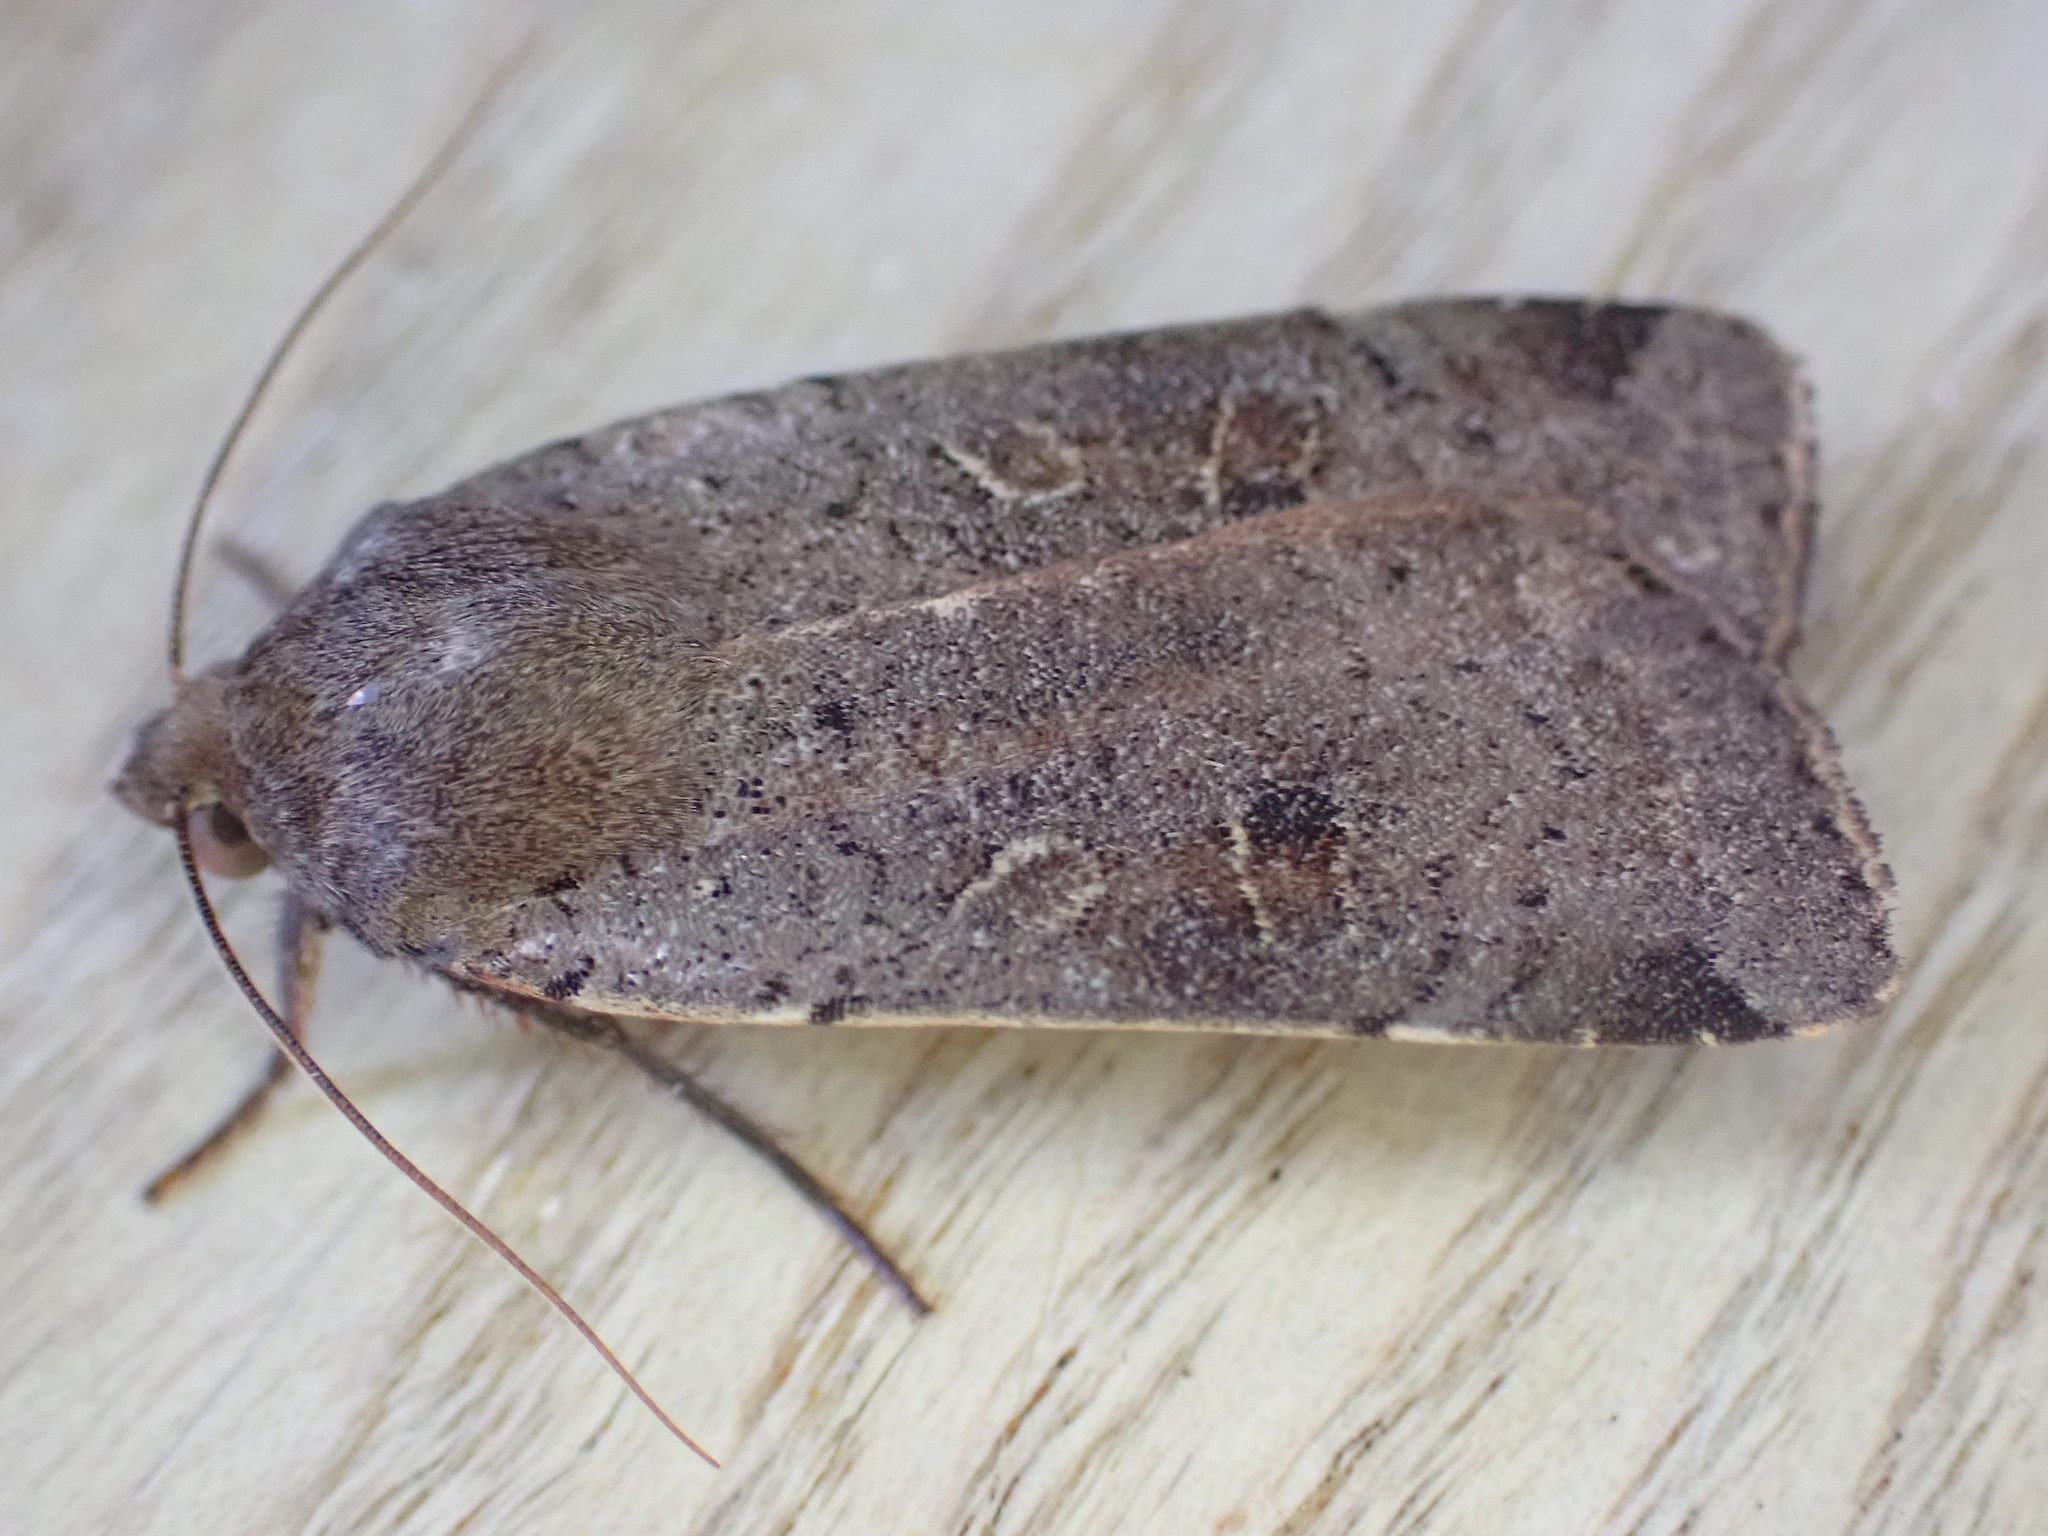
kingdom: Animalia
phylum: Arthropoda
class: Insecta
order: Lepidoptera
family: Noctuidae
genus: Noctua
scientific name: Noctua comes
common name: Lesser yellow underwing
